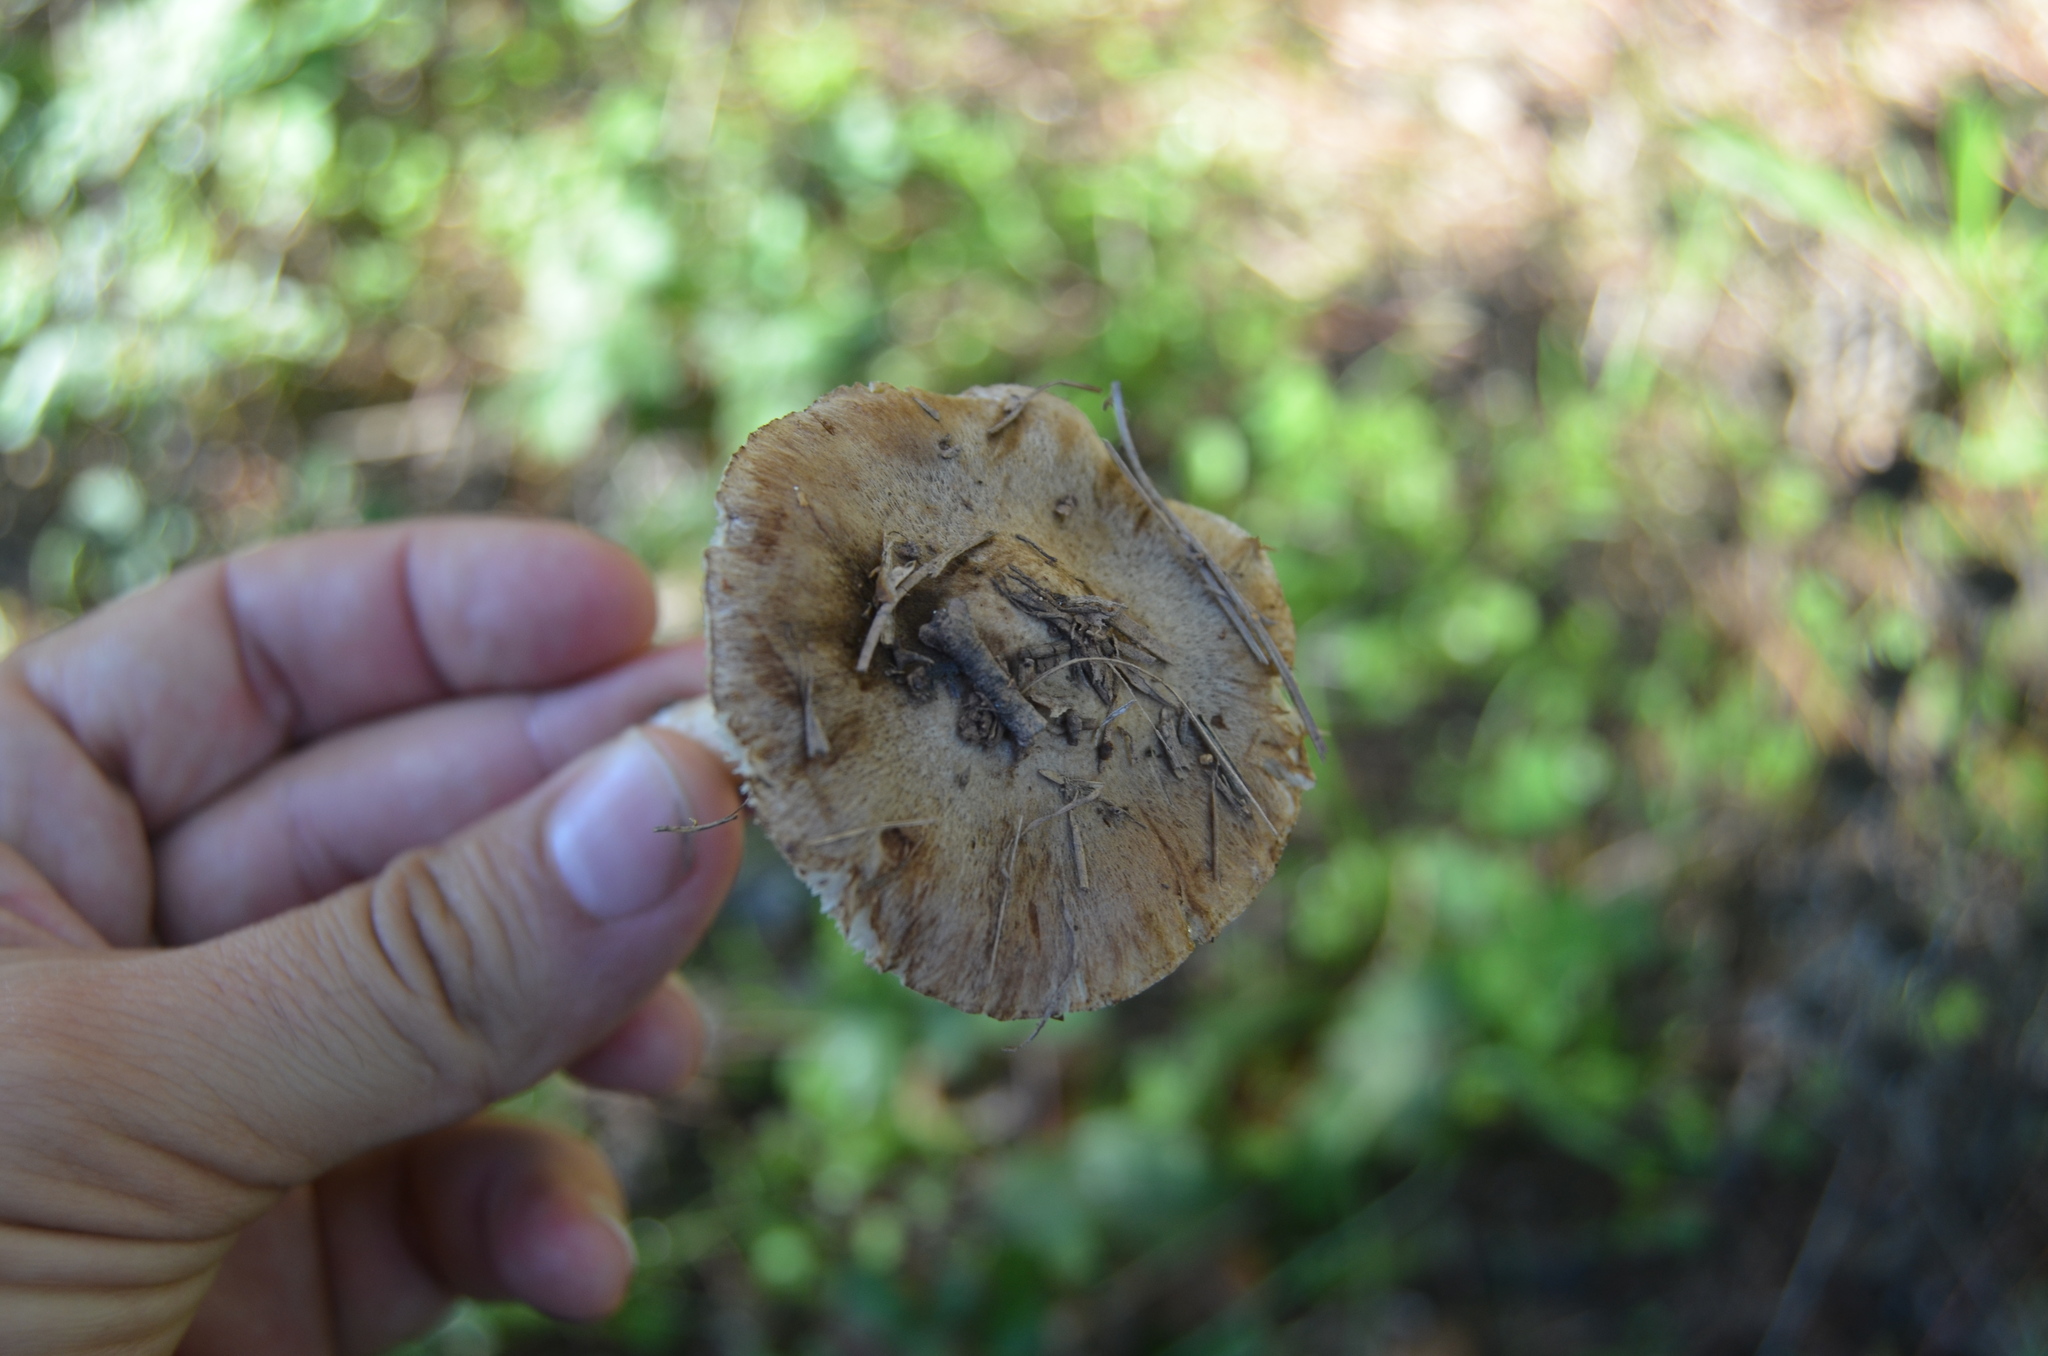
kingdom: Fungi
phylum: Basidiomycota
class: Agaricomycetes
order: Agaricales
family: Tricholomataceae
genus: Tricholoma
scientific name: Tricholoma terreum
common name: Grey knight
